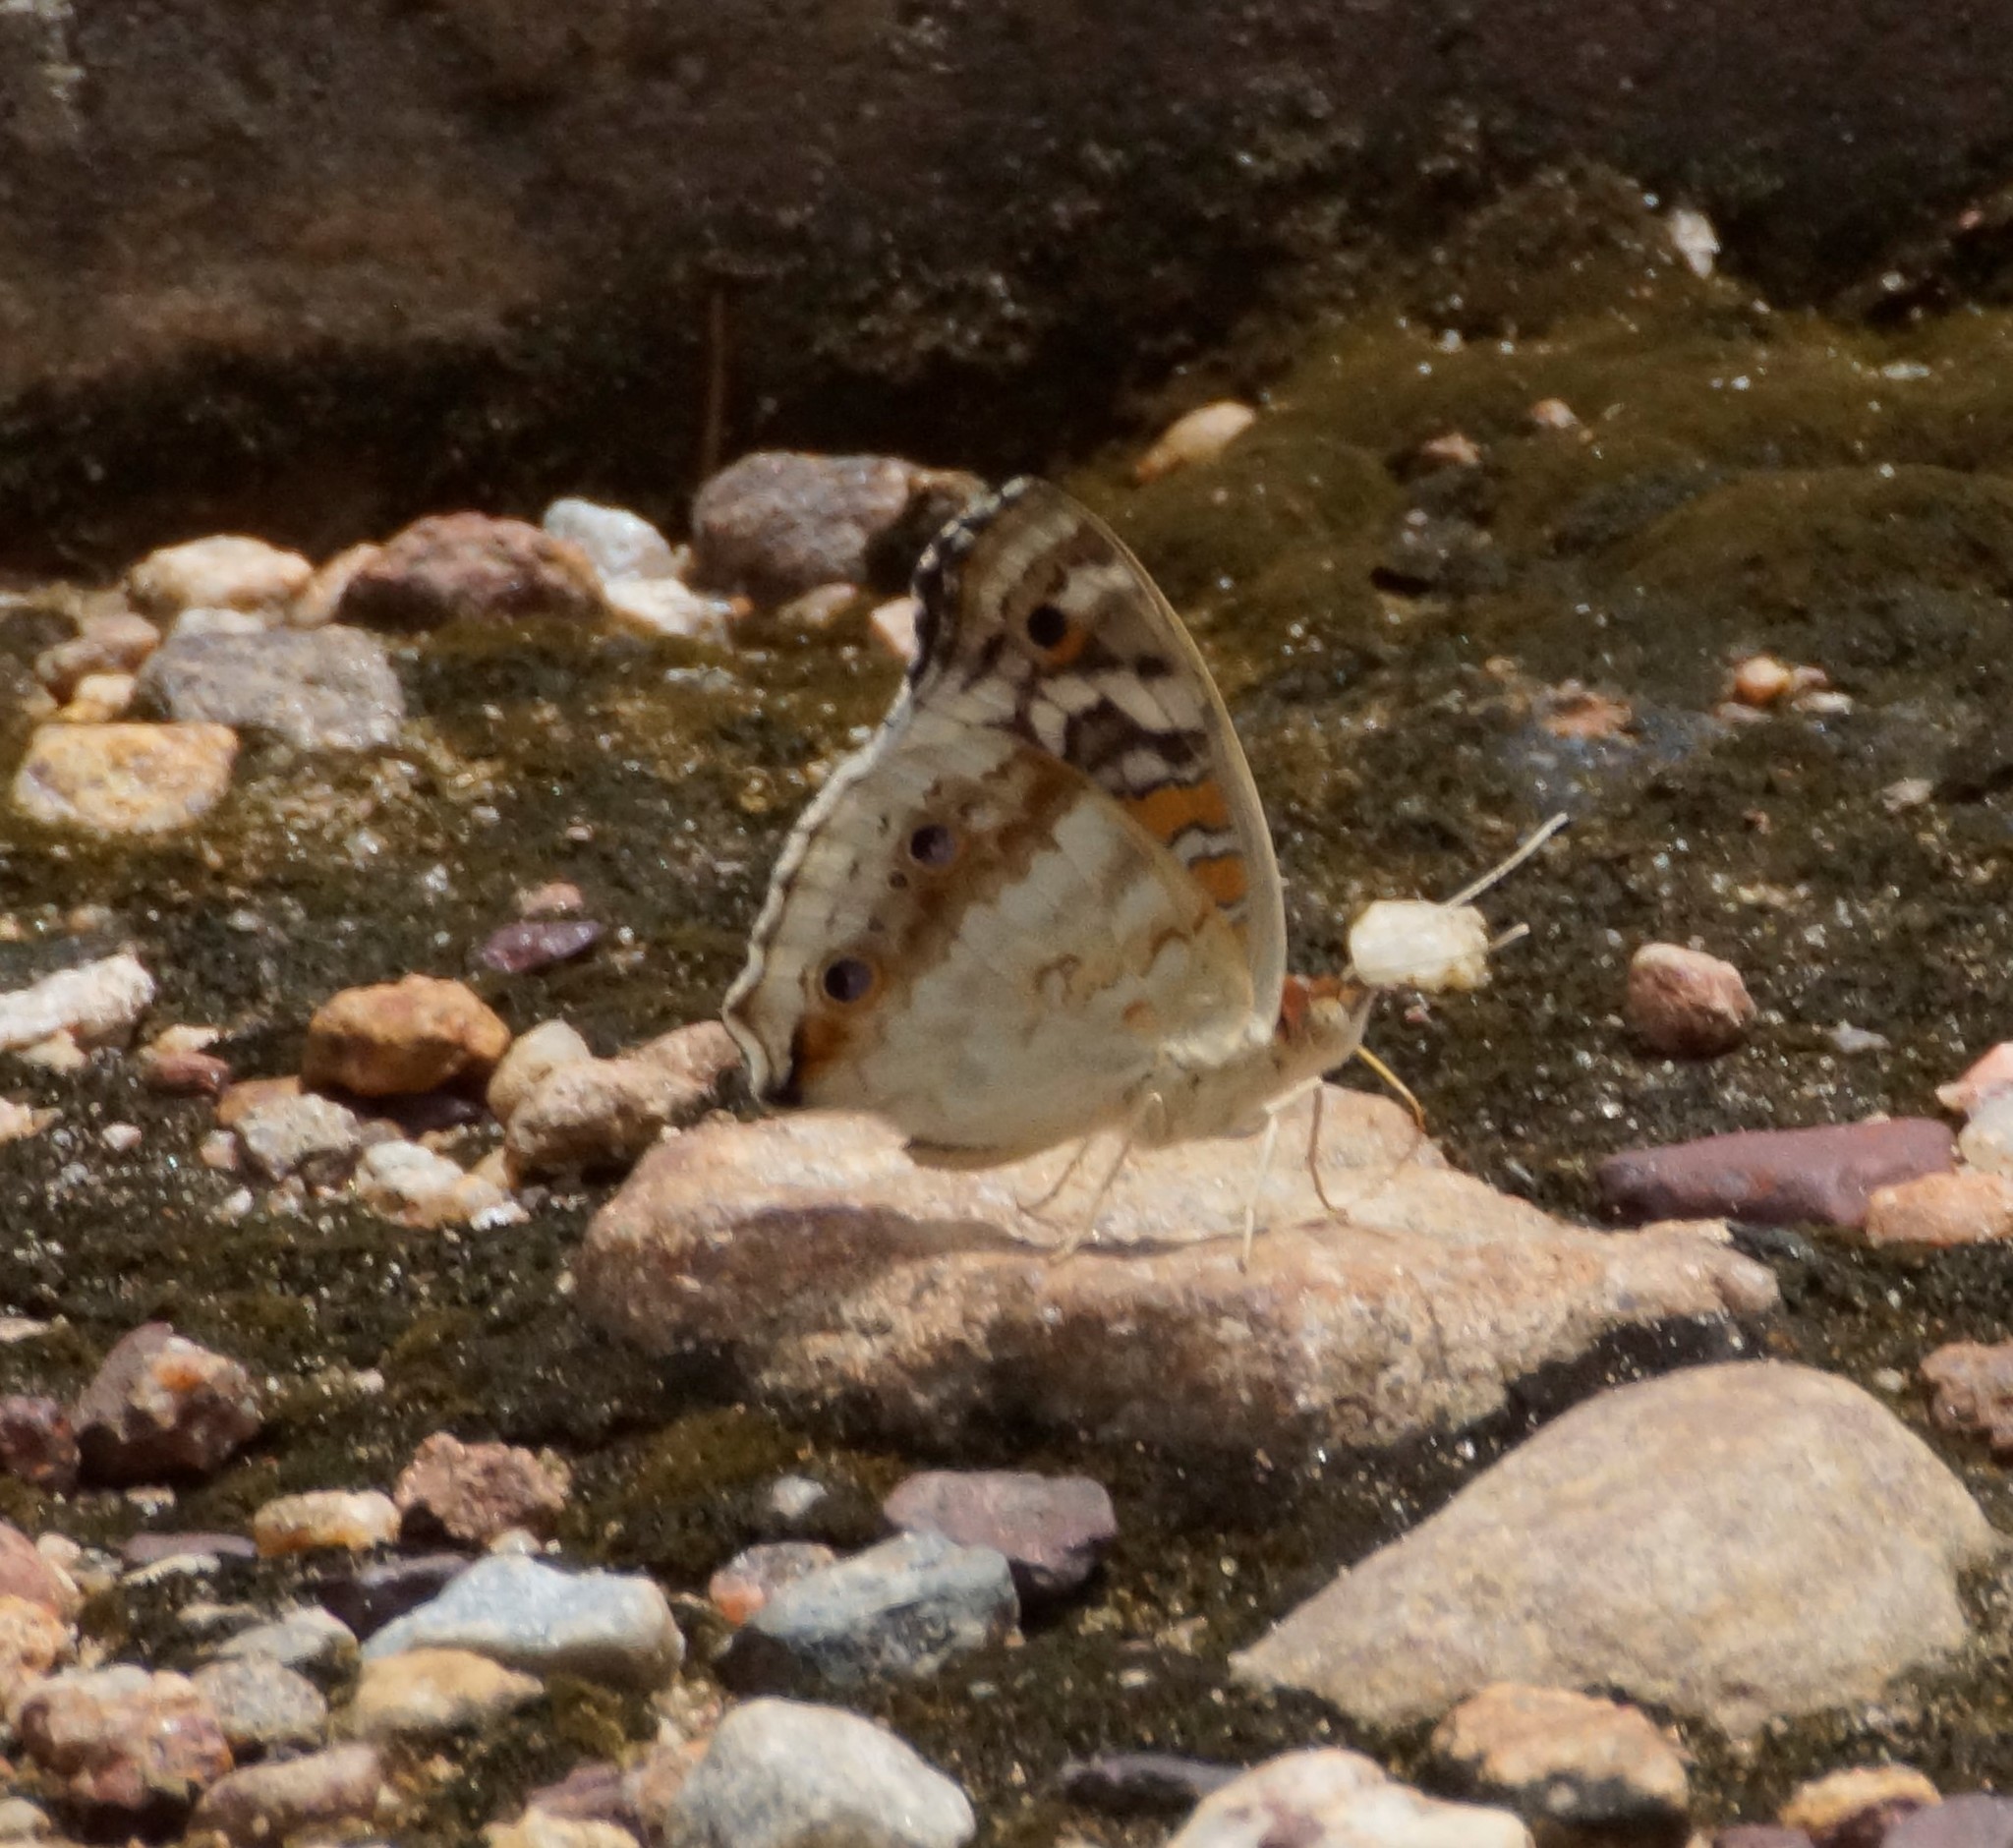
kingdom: Animalia
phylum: Arthropoda
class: Insecta
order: Lepidoptera
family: Nymphalidae
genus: Junonia
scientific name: Junonia orithya
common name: Blue pansy
